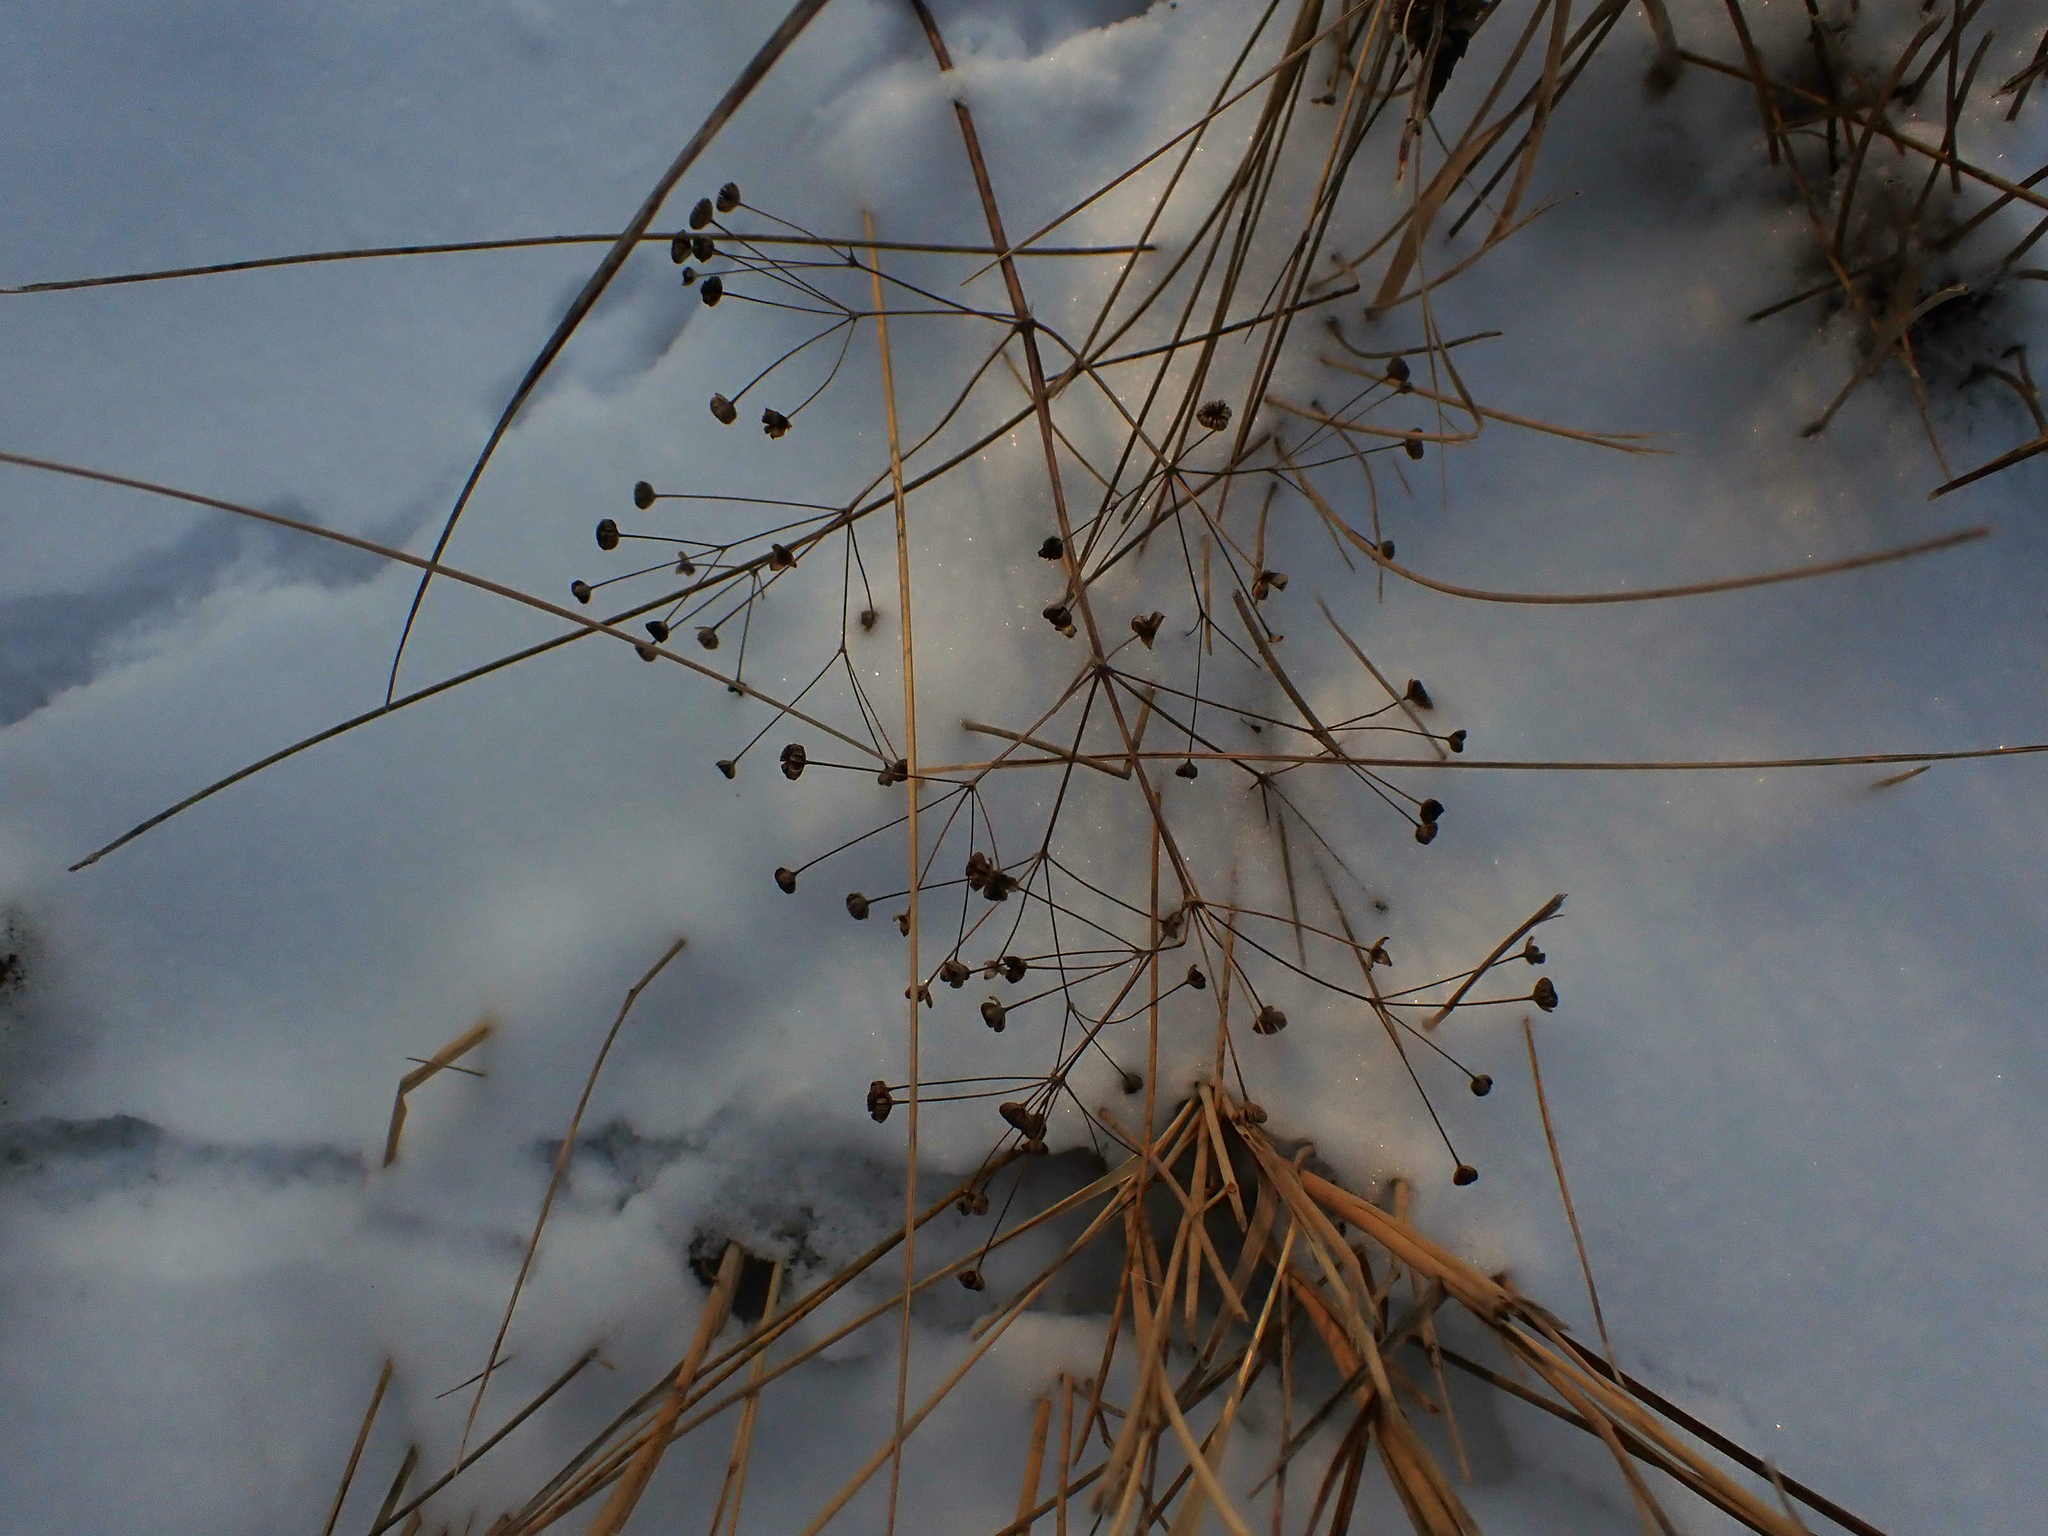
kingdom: Plantae
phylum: Tracheophyta
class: Liliopsida
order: Alismatales
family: Alismataceae
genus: Alisma
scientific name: Alisma triviale
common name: Northern water-plantain
